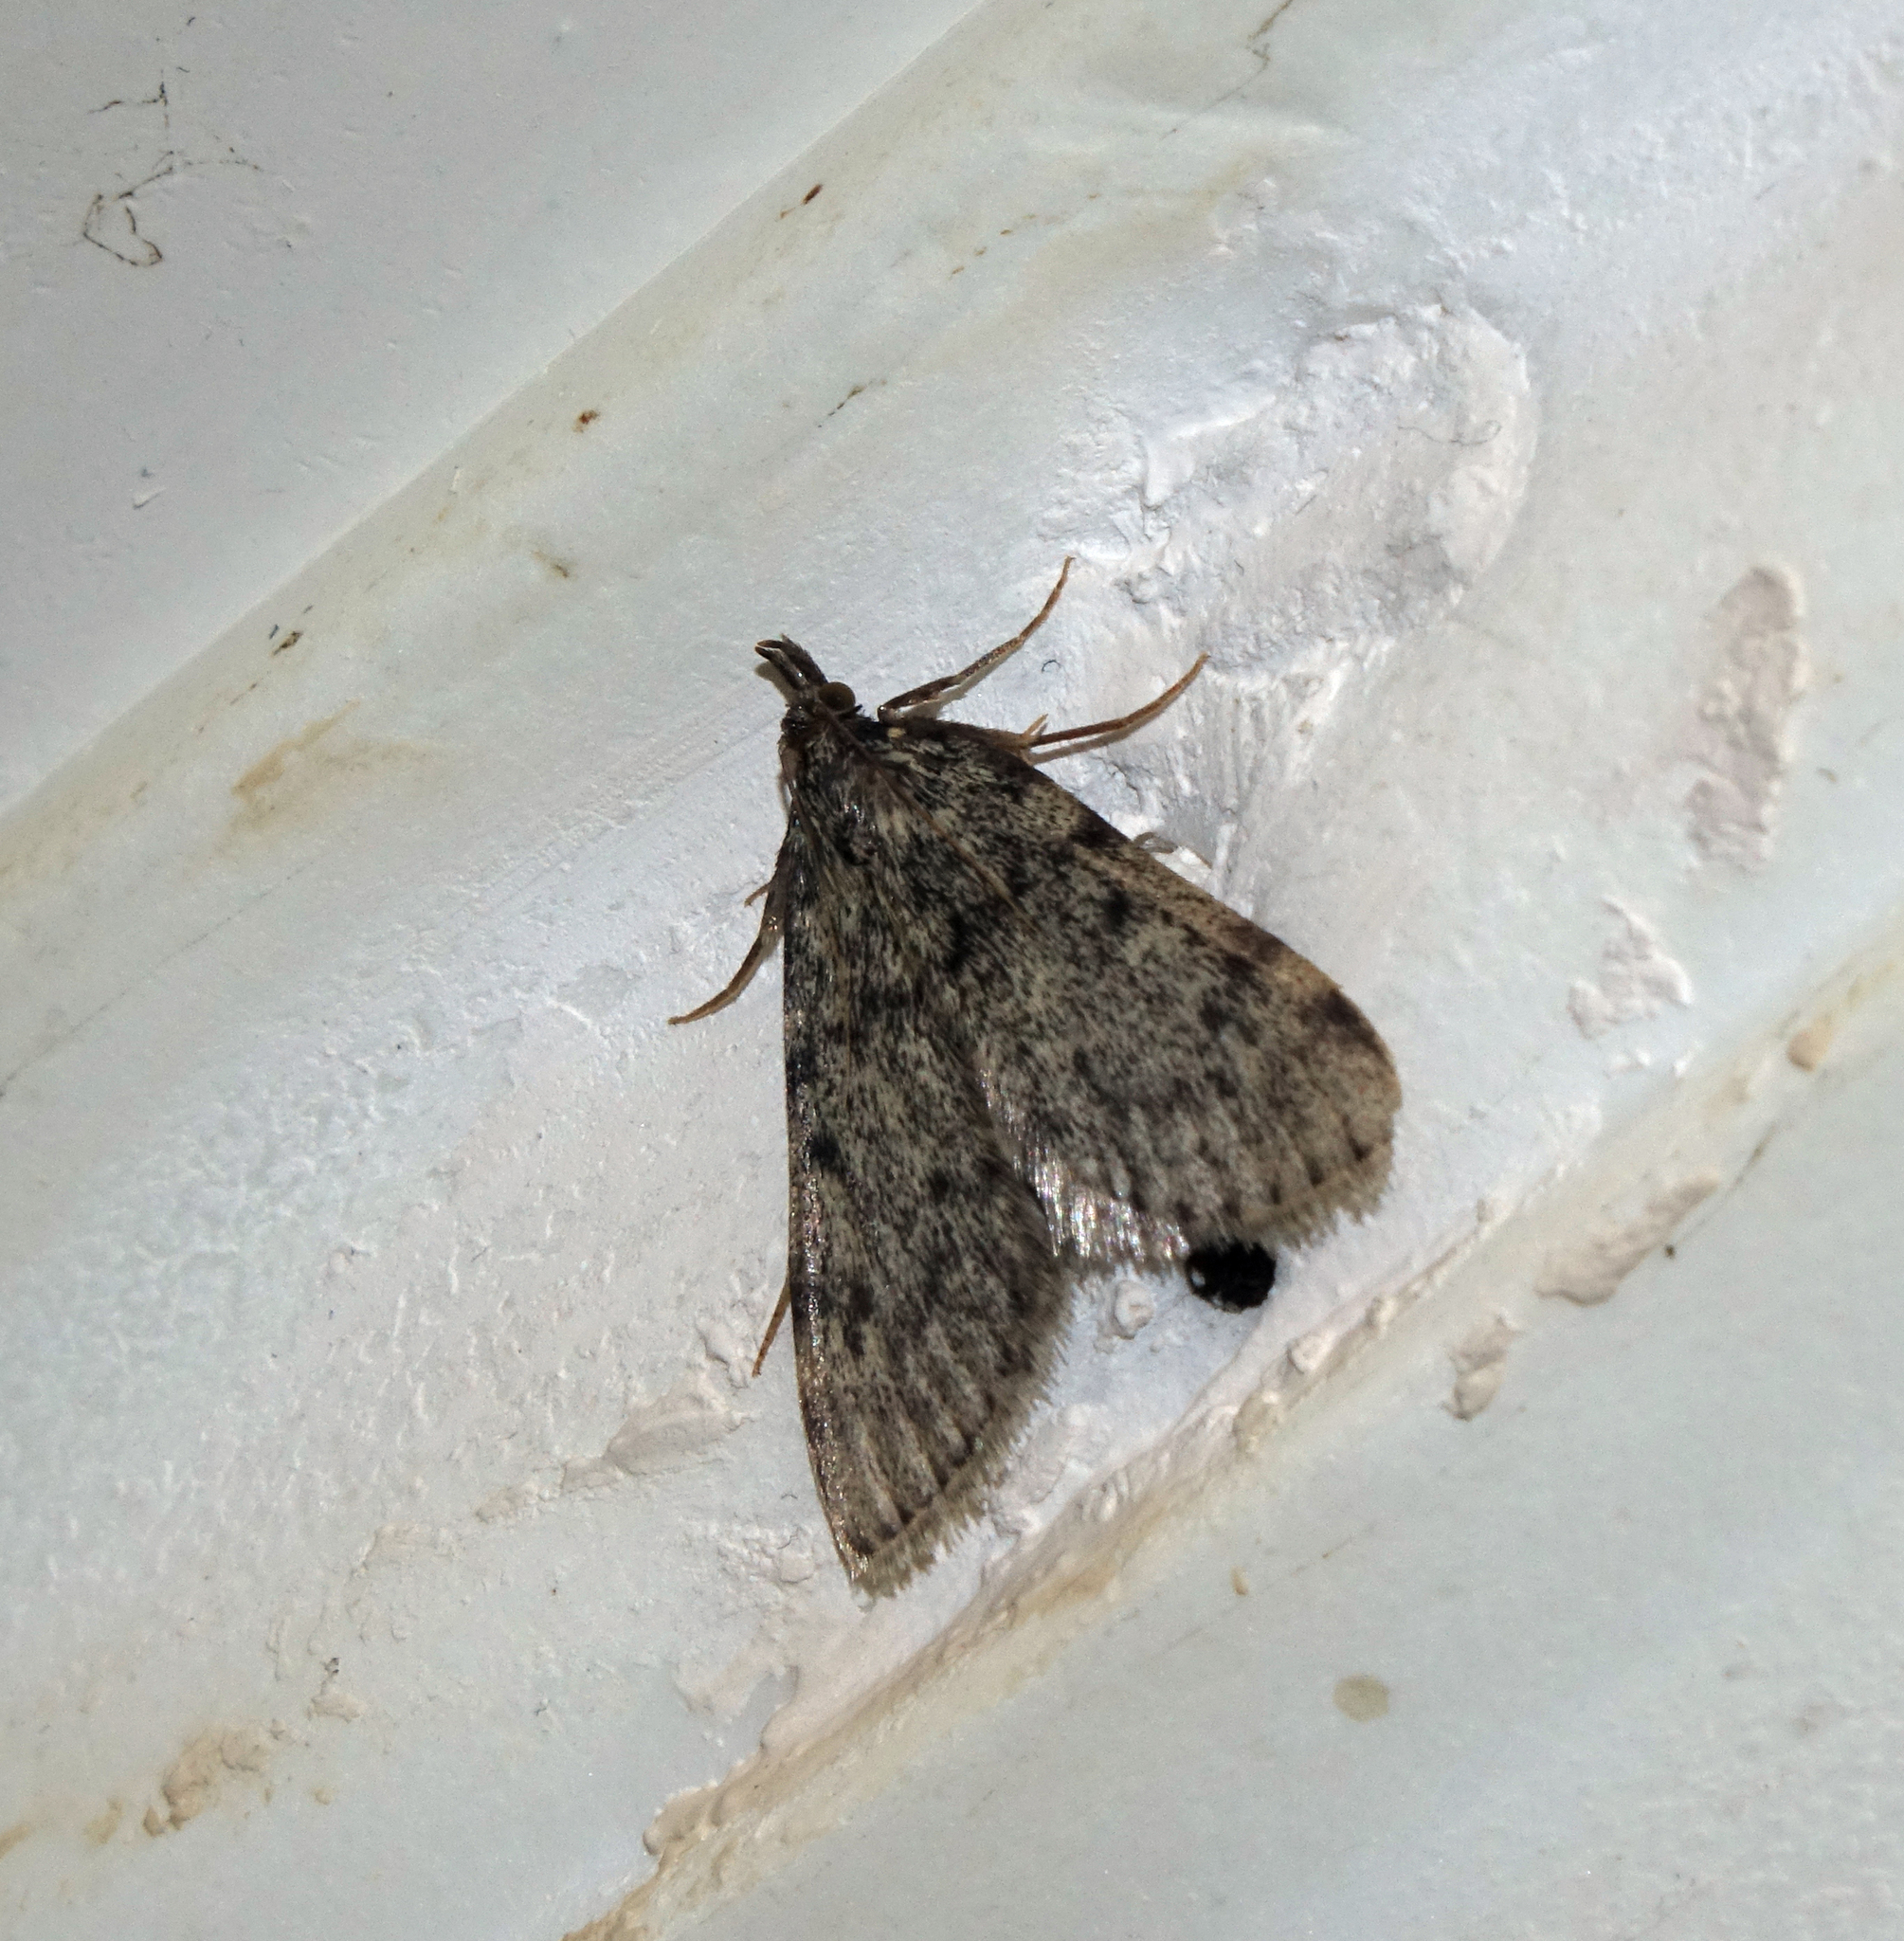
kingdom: Animalia
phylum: Arthropoda
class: Insecta
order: Lepidoptera
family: Pyralidae
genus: Aglossa
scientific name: Aglossa pinguinalis
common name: Large tabby
